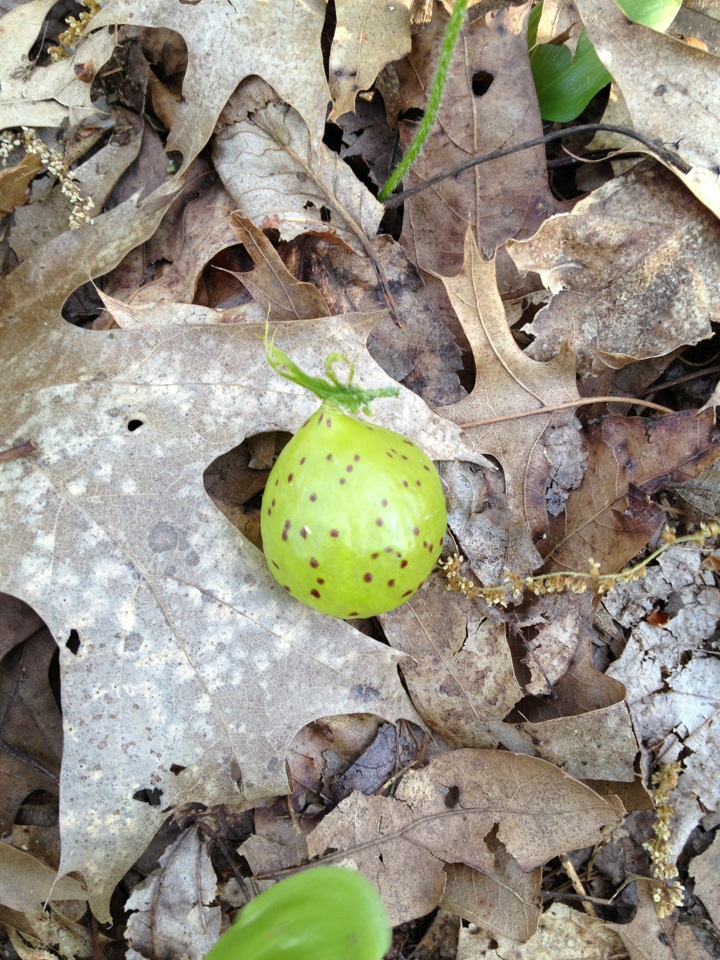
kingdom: Animalia
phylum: Arthropoda
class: Insecta
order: Hymenoptera
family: Cynipidae
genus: Amphibolips
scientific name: Amphibolips
